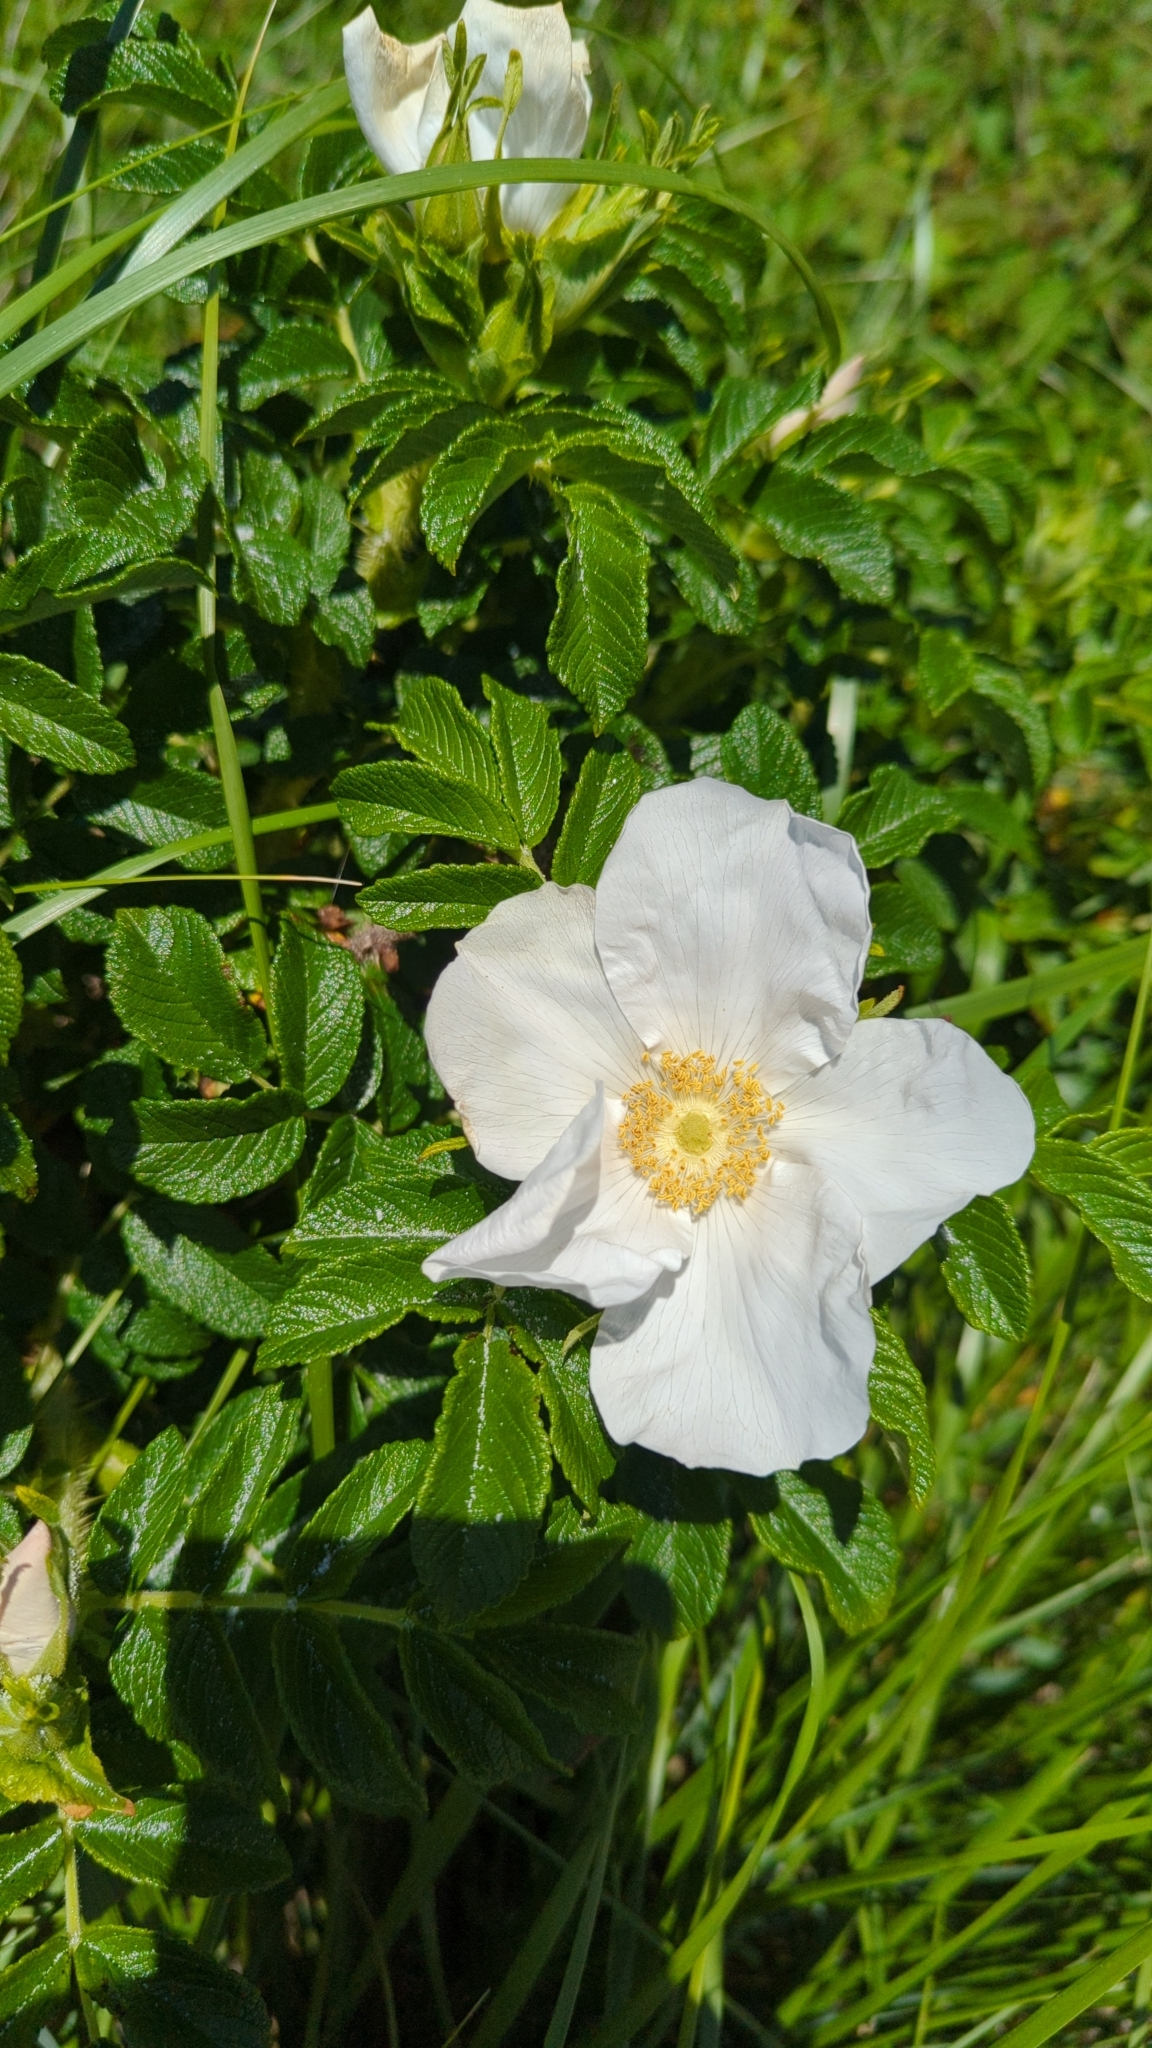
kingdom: Plantae
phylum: Tracheophyta
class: Magnoliopsida
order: Rosales
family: Rosaceae
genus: Rosa
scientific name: Rosa rugosa
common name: Japanese rose
